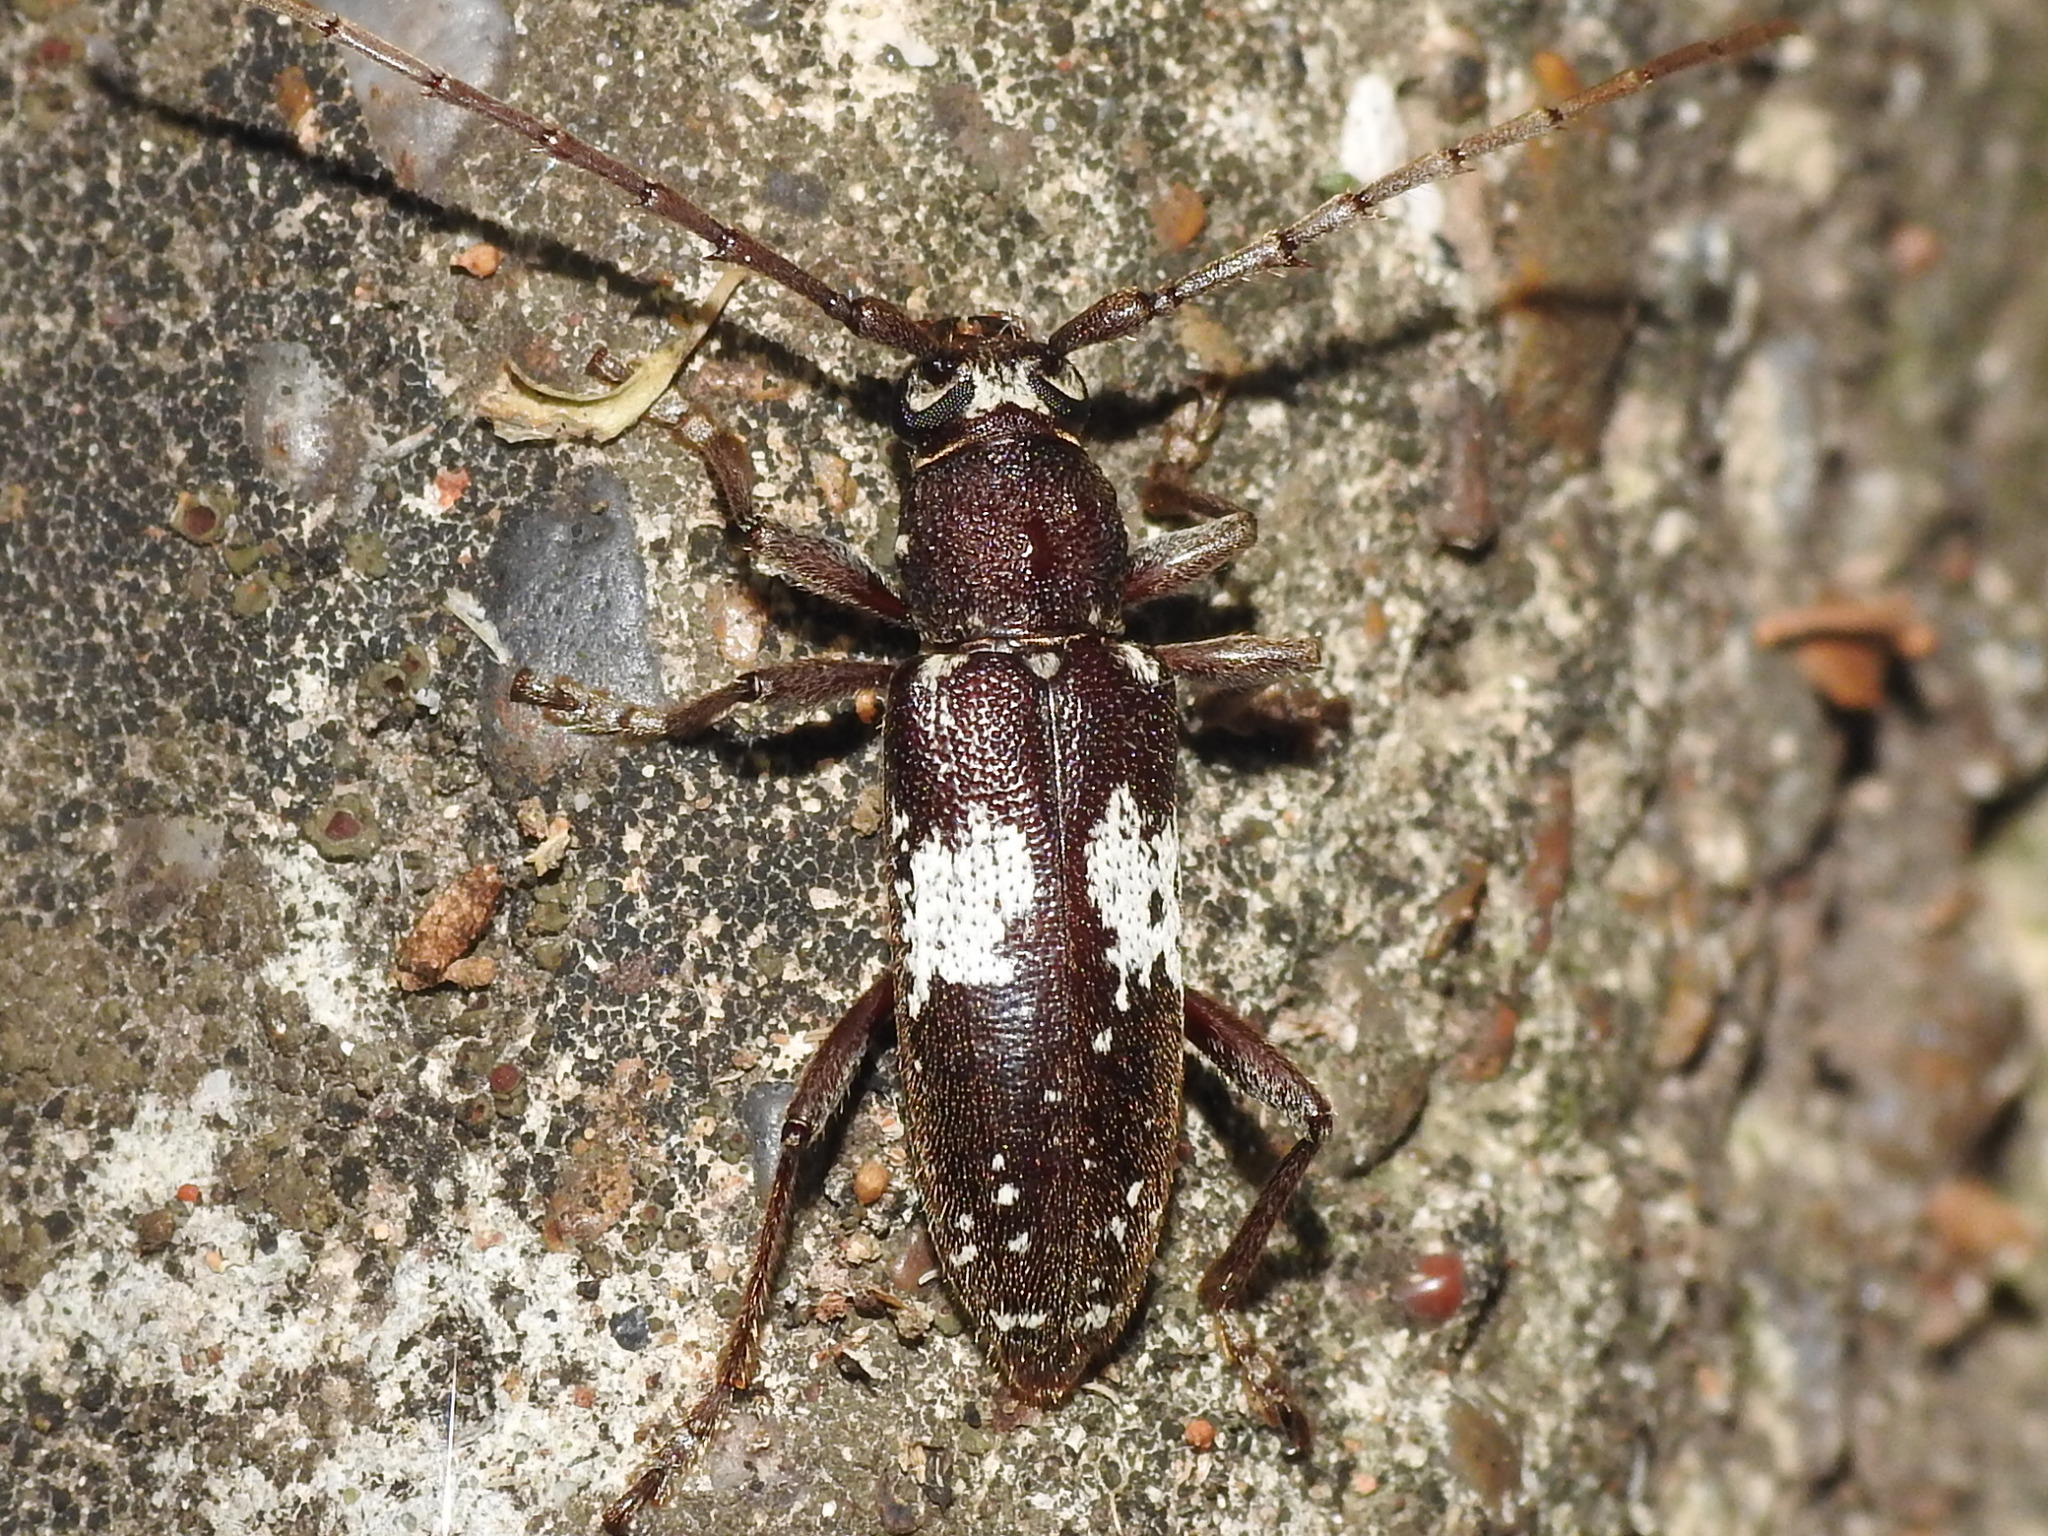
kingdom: Animalia
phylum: Arthropoda
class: Insecta
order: Coleoptera
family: Cerambycidae
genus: Enaphalodes
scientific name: Enaphalodes taeniatus
